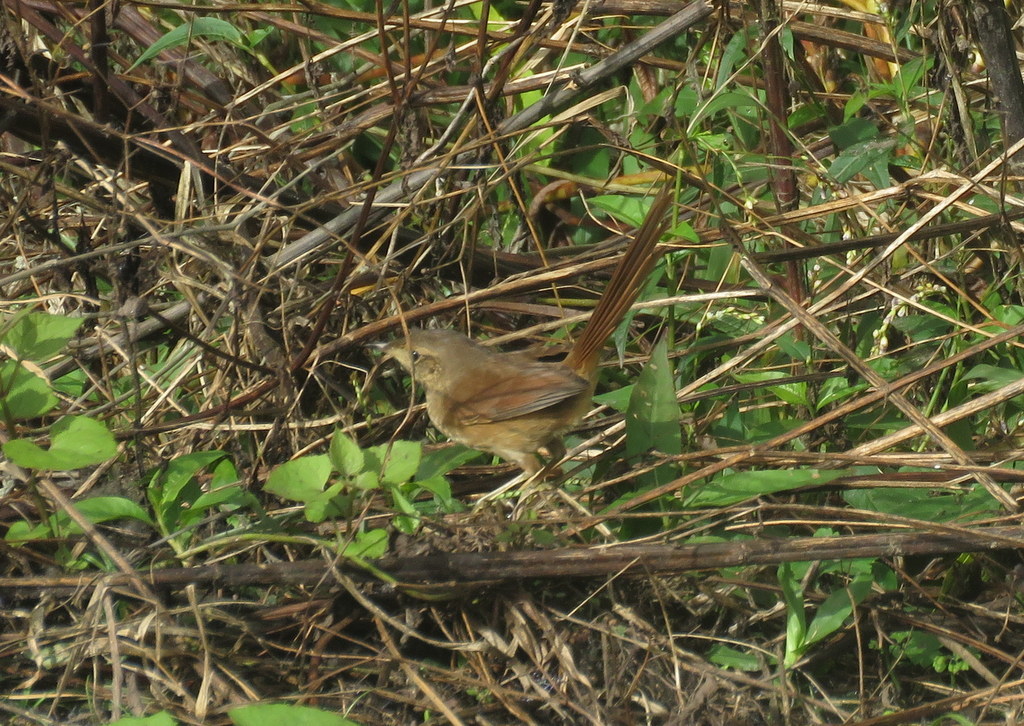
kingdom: Animalia
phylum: Chordata
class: Aves
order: Passeriformes
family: Furnariidae
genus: Asthenes
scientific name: Asthenes pyrrholeuca
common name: Sharp-billed canastero
